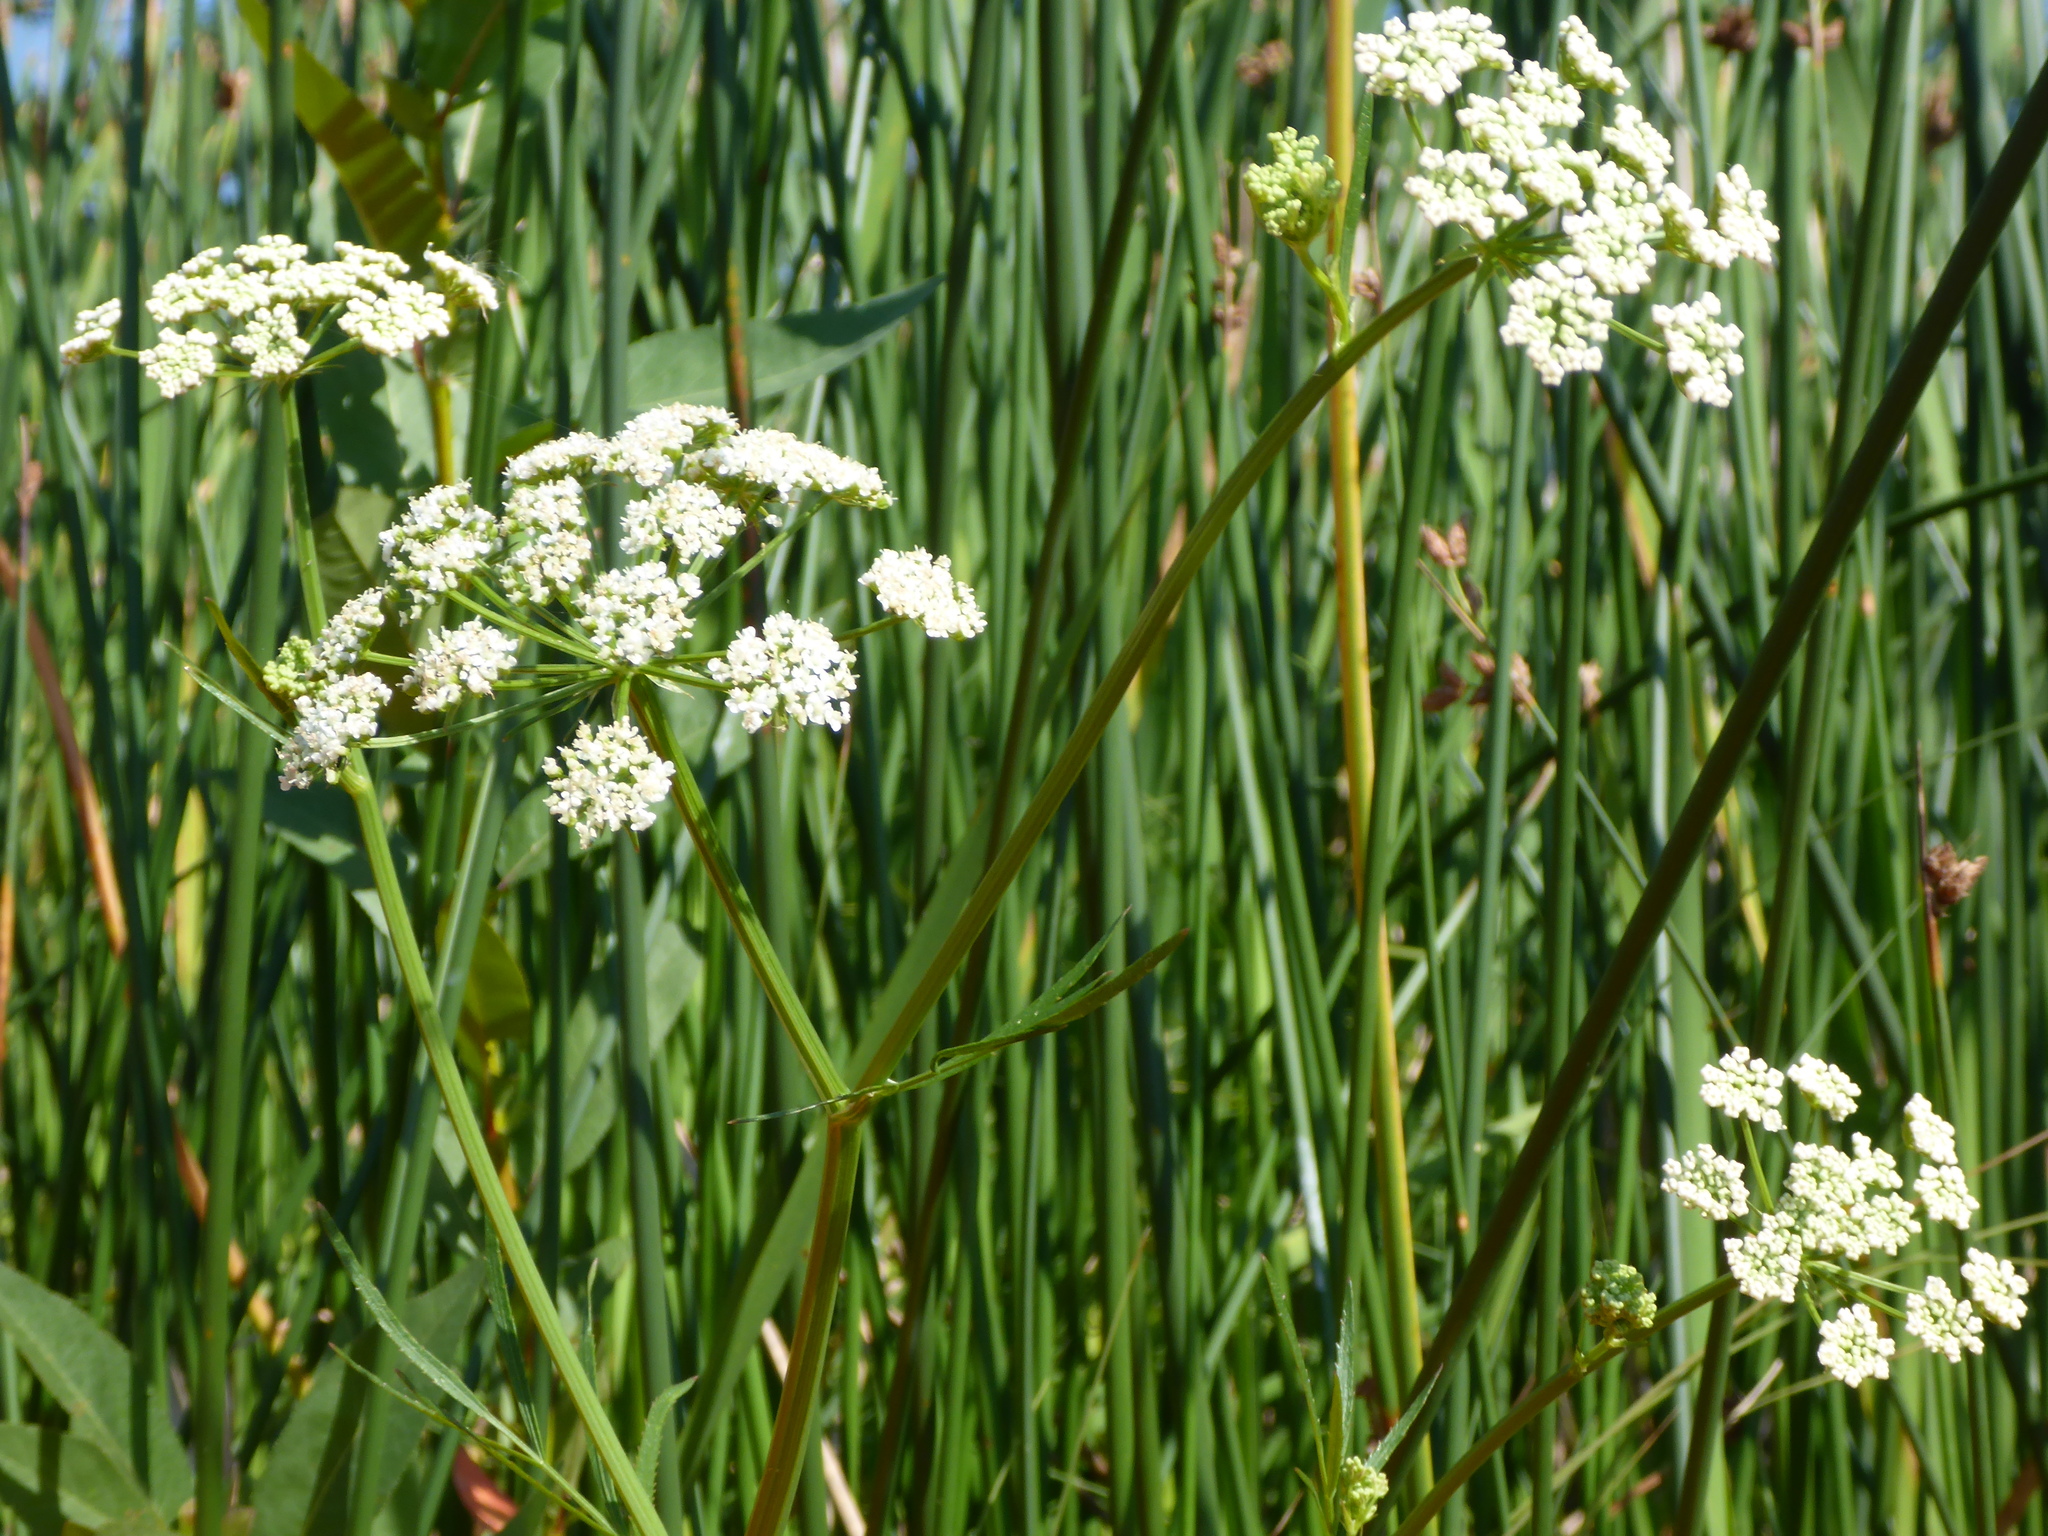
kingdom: Plantae
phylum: Tracheophyta
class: Magnoliopsida
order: Apiales
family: Apiaceae
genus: Sium
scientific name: Sium suave
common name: Hemlock water-parsnip
